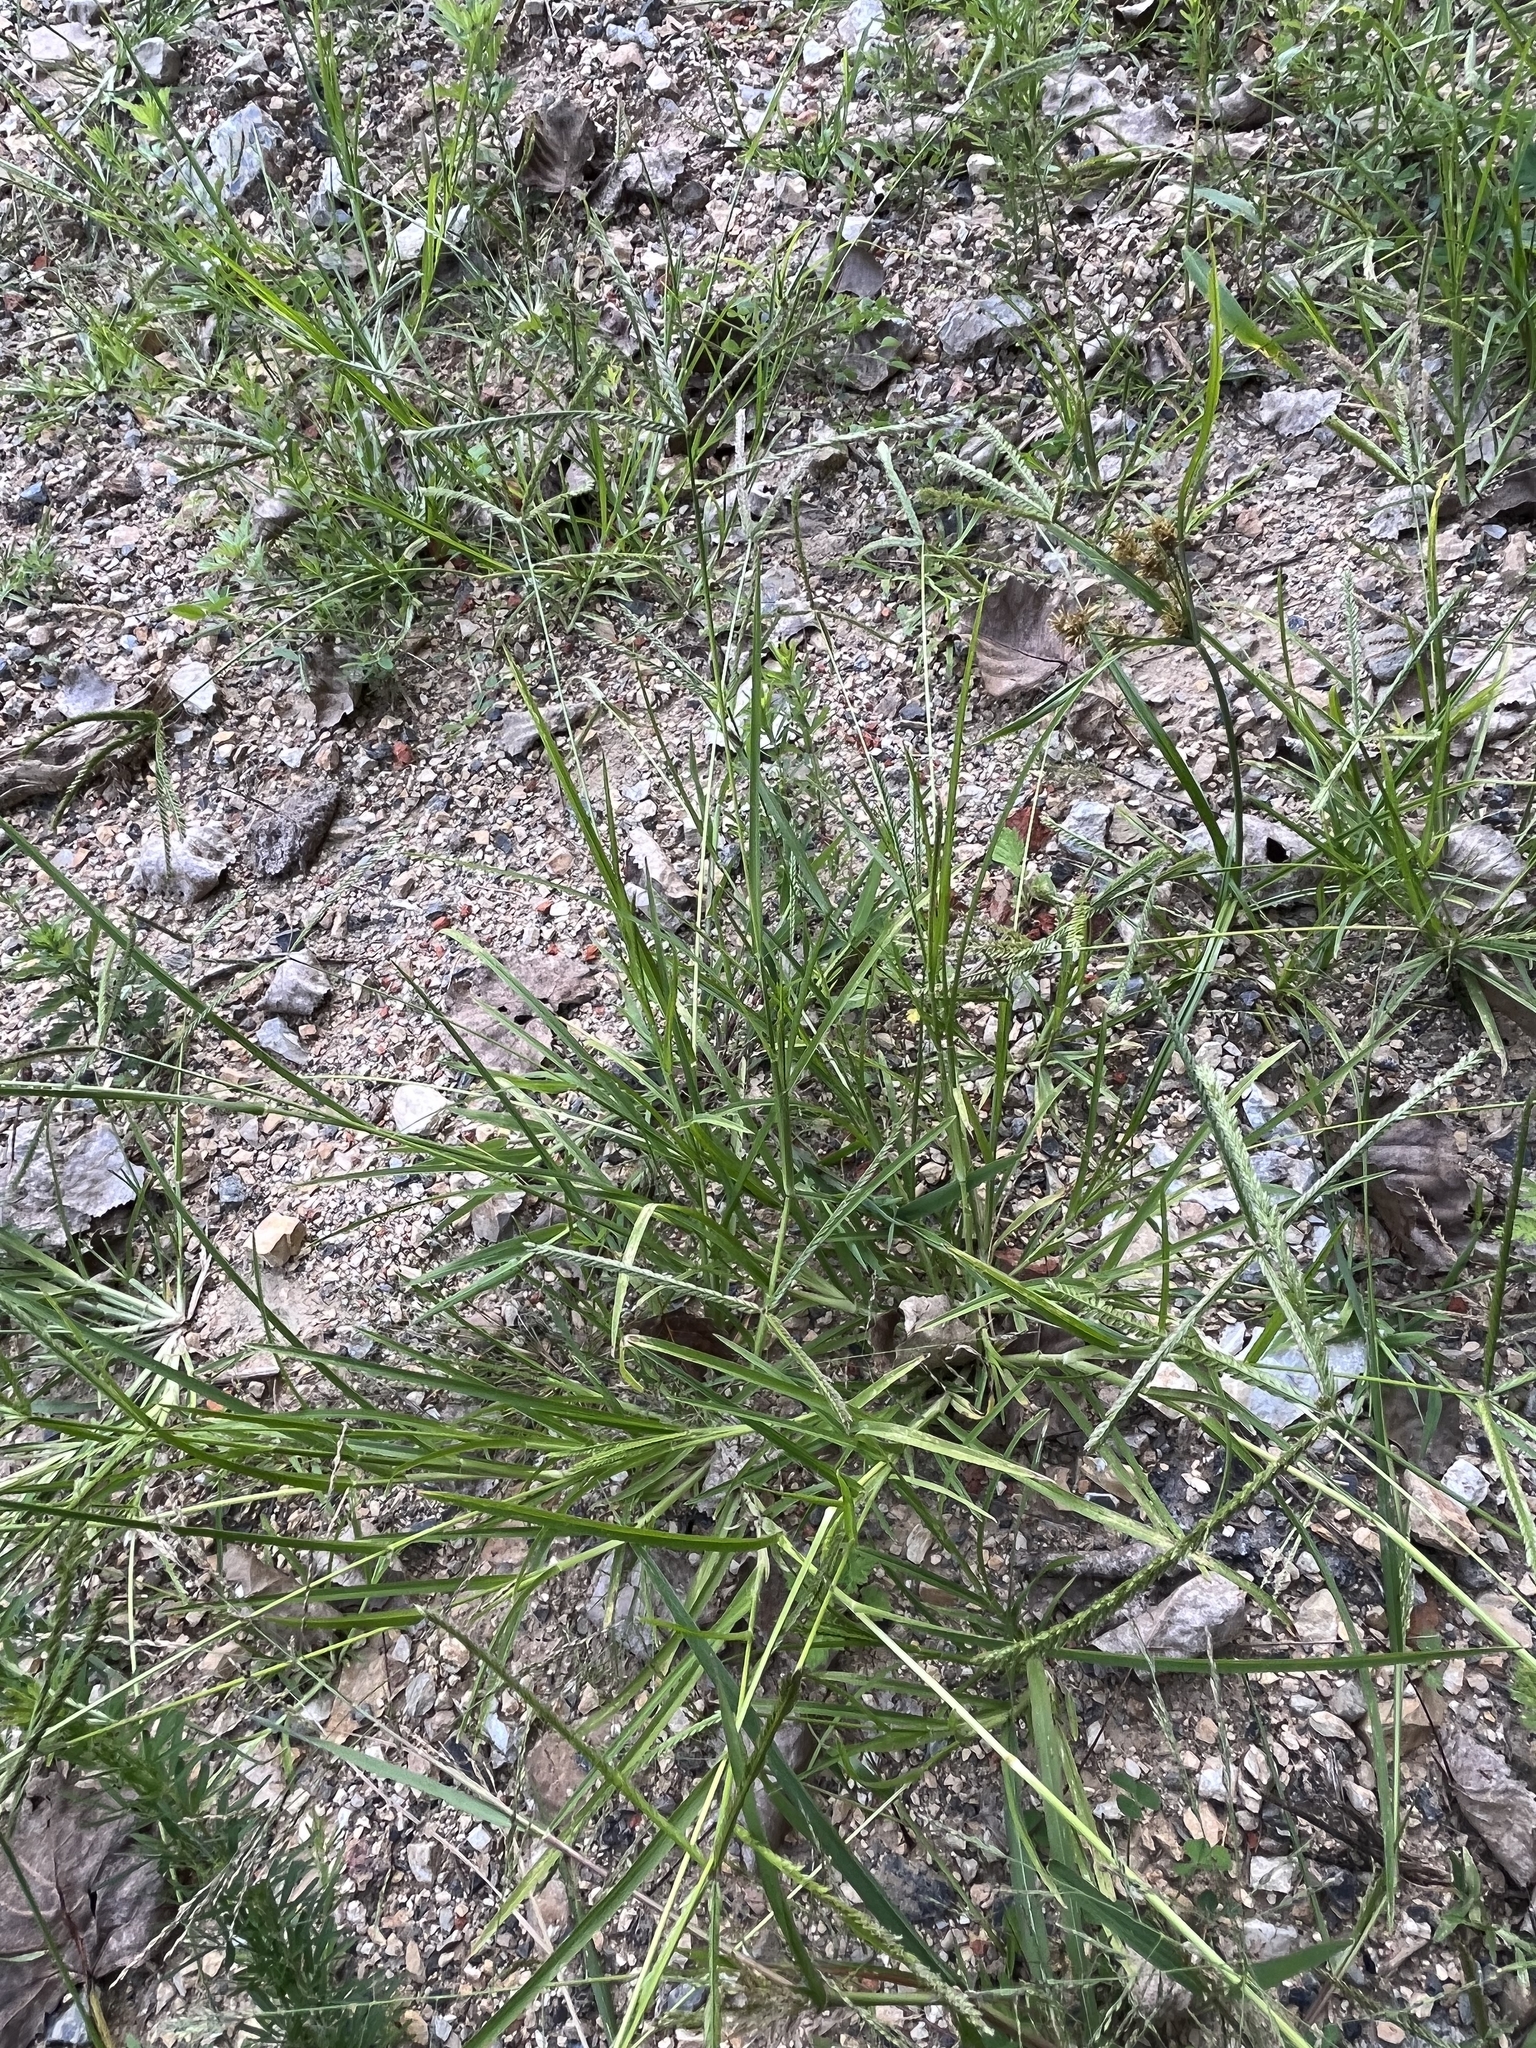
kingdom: Plantae
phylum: Tracheophyta
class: Liliopsida
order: Poales
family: Poaceae
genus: Eleusine
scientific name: Eleusine indica
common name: Yard-grass
